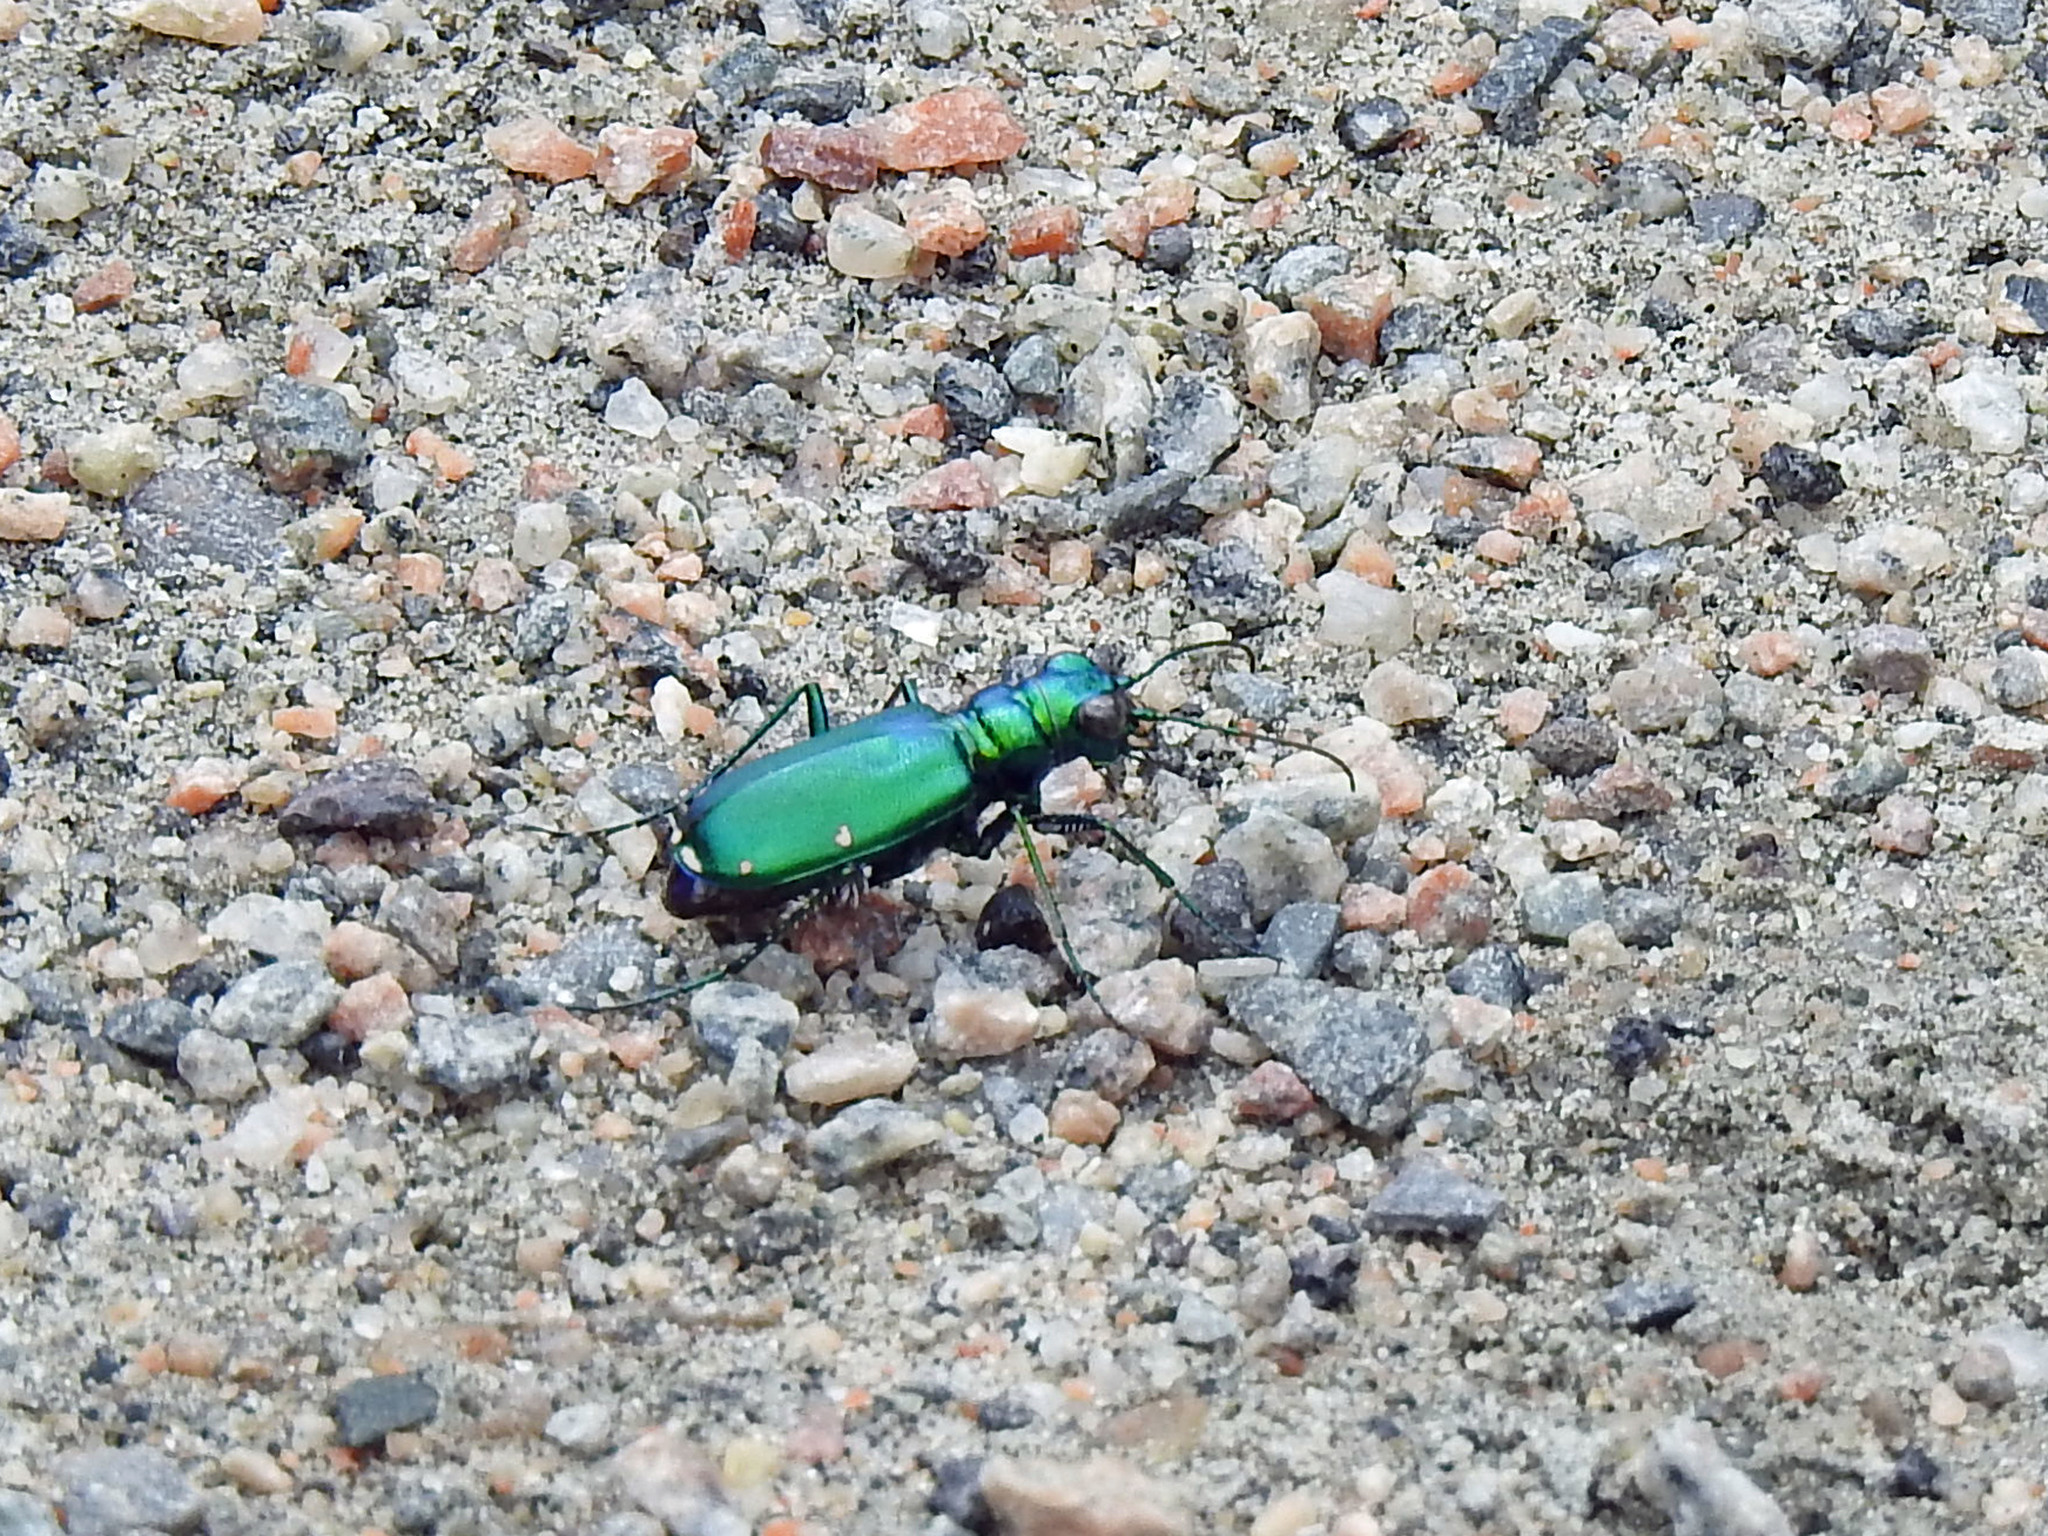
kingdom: Animalia
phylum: Arthropoda
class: Insecta
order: Coleoptera
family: Carabidae
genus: Cicindela
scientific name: Cicindela sexguttata
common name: Six-spotted tiger beetle
